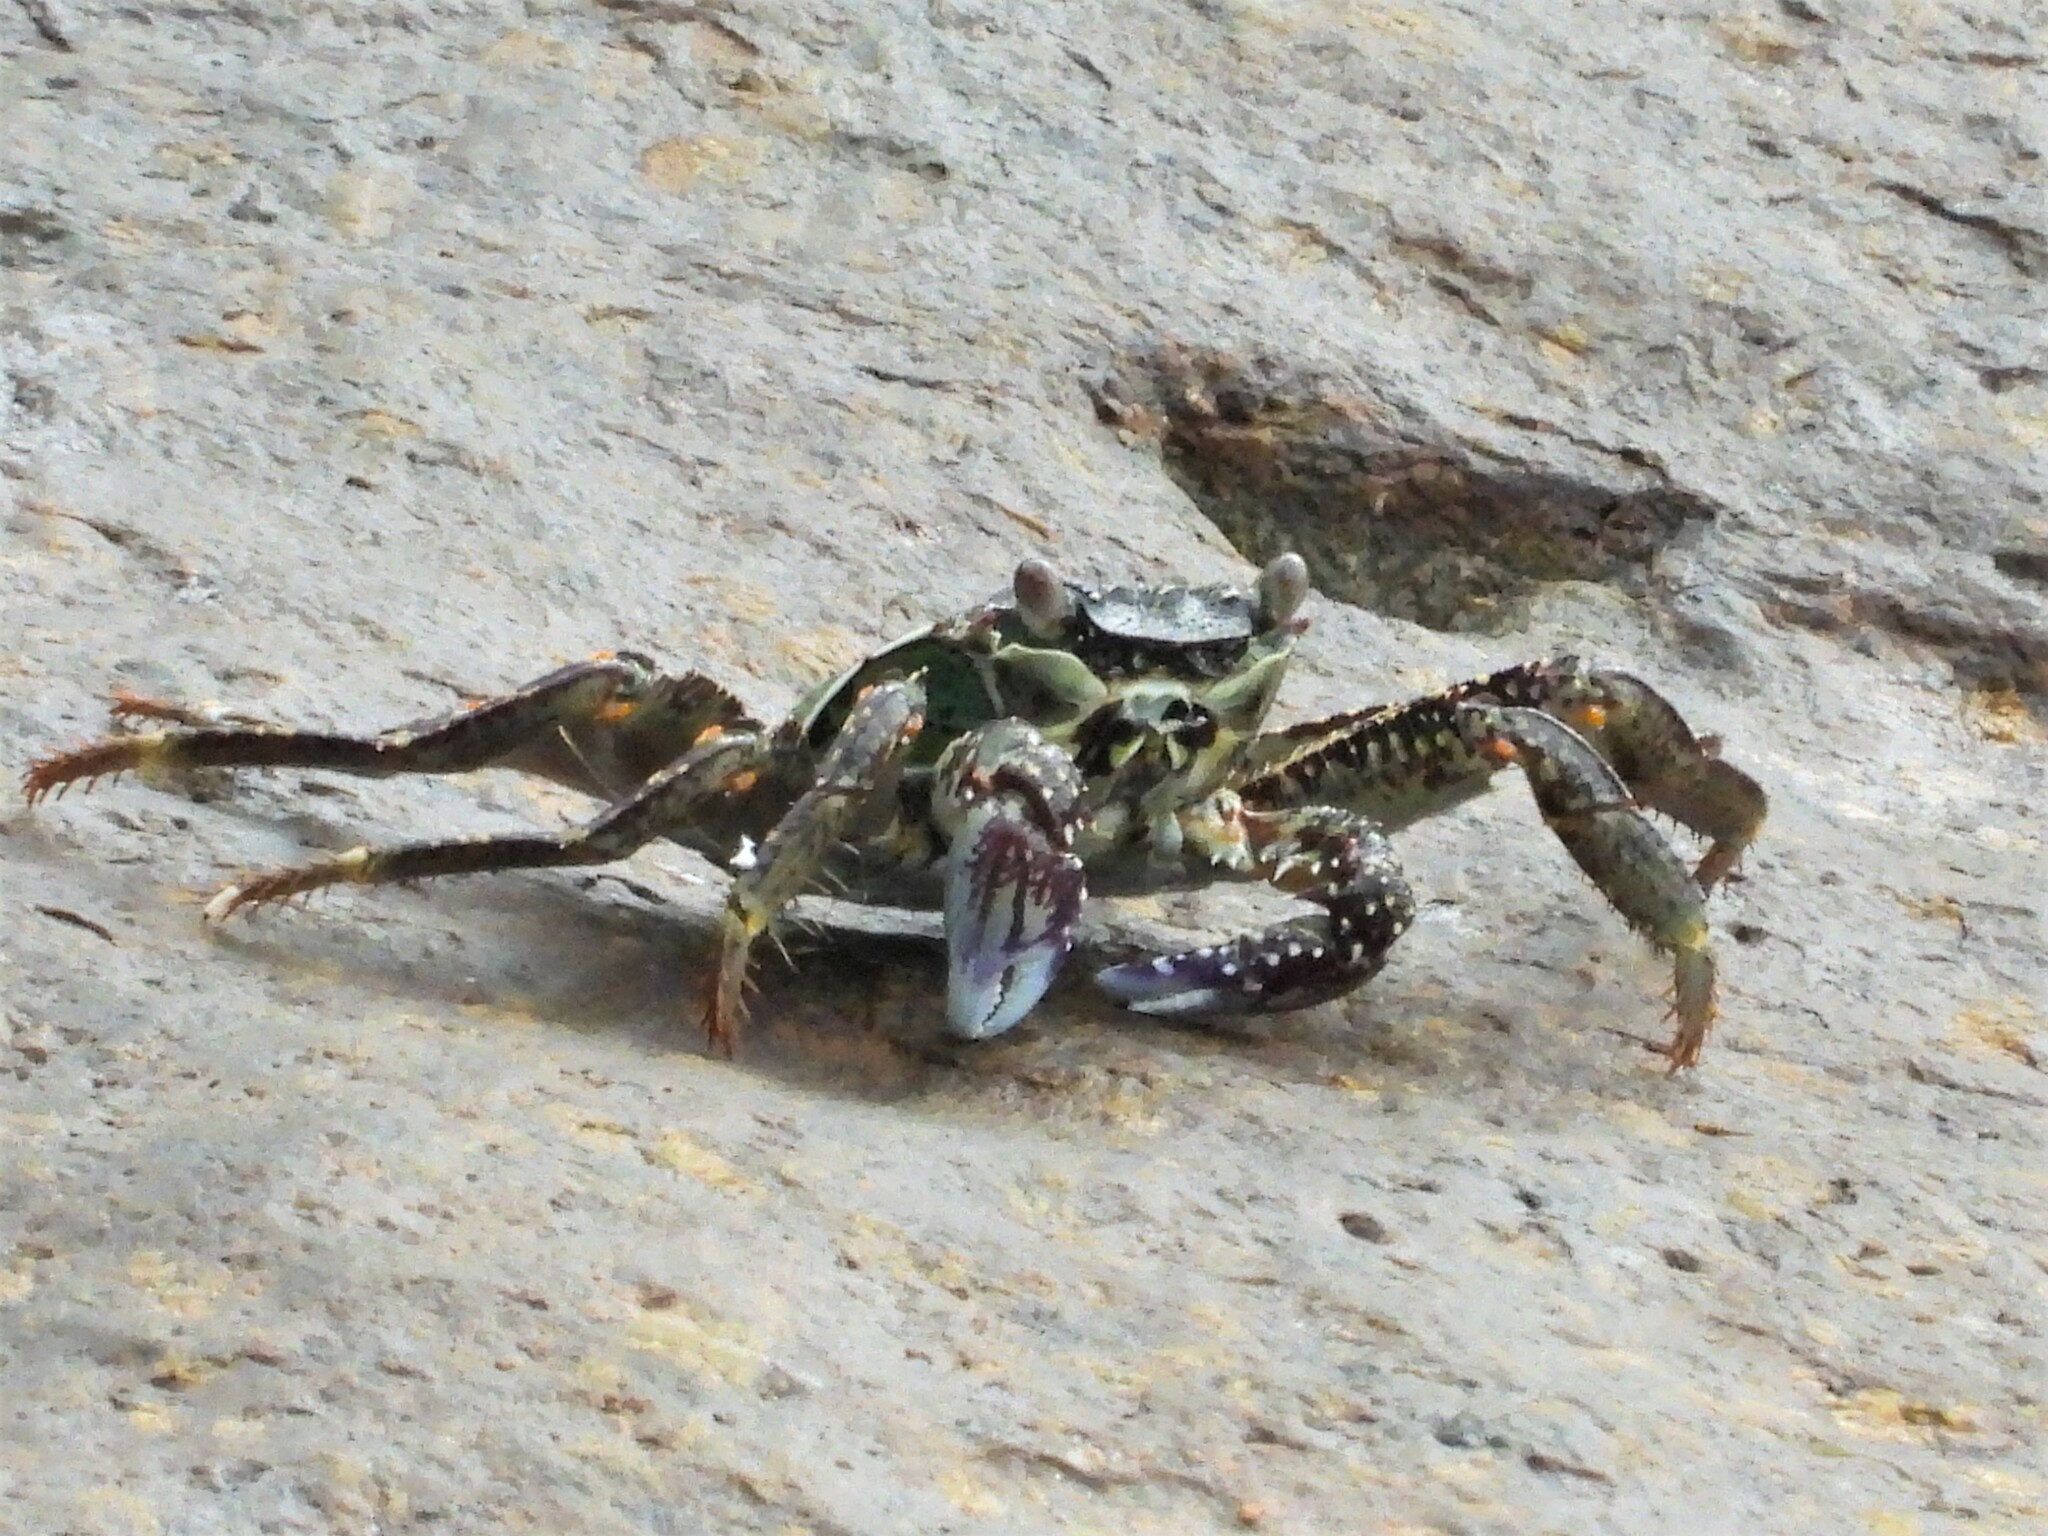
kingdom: Animalia
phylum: Arthropoda
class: Malacostraca
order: Decapoda
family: Grapsidae
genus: Grapsus
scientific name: Grapsus albolineatus
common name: Mottled lightfoot crab
